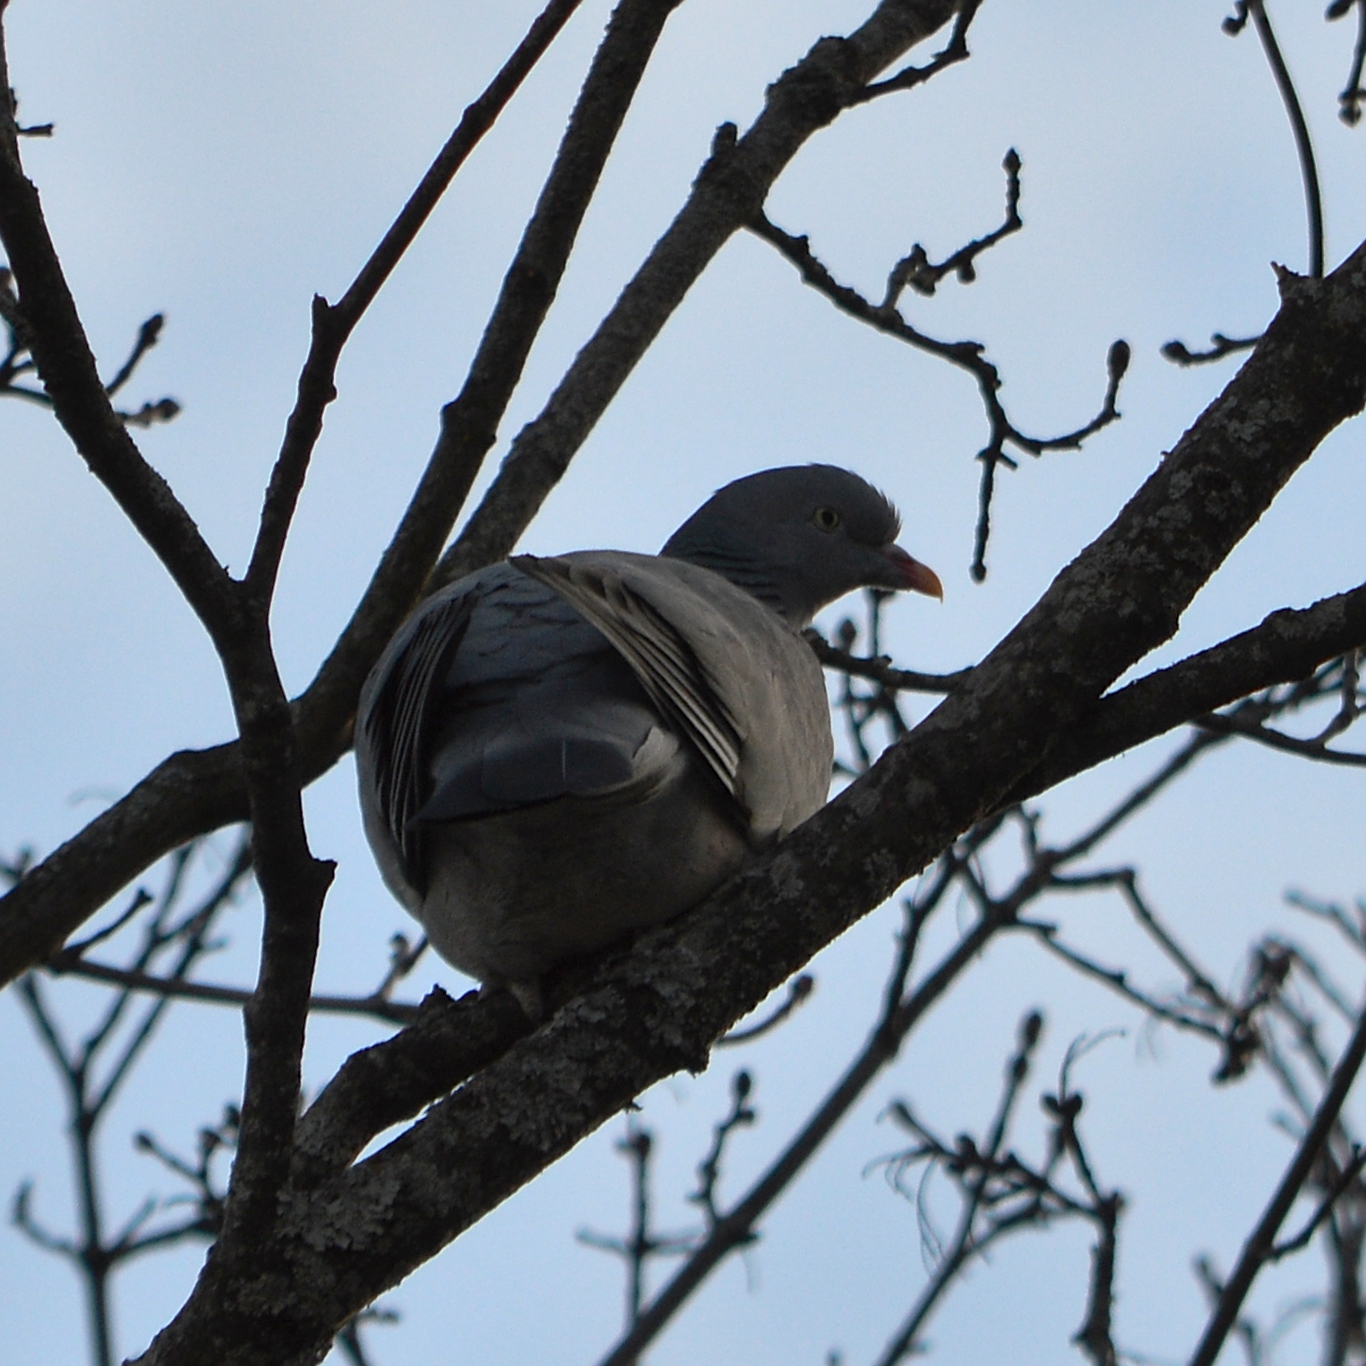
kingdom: Animalia
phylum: Chordata
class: Aves
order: Columbiformes
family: Columbidae
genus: Columba
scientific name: Columba palumbus
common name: Common wood pigeon
